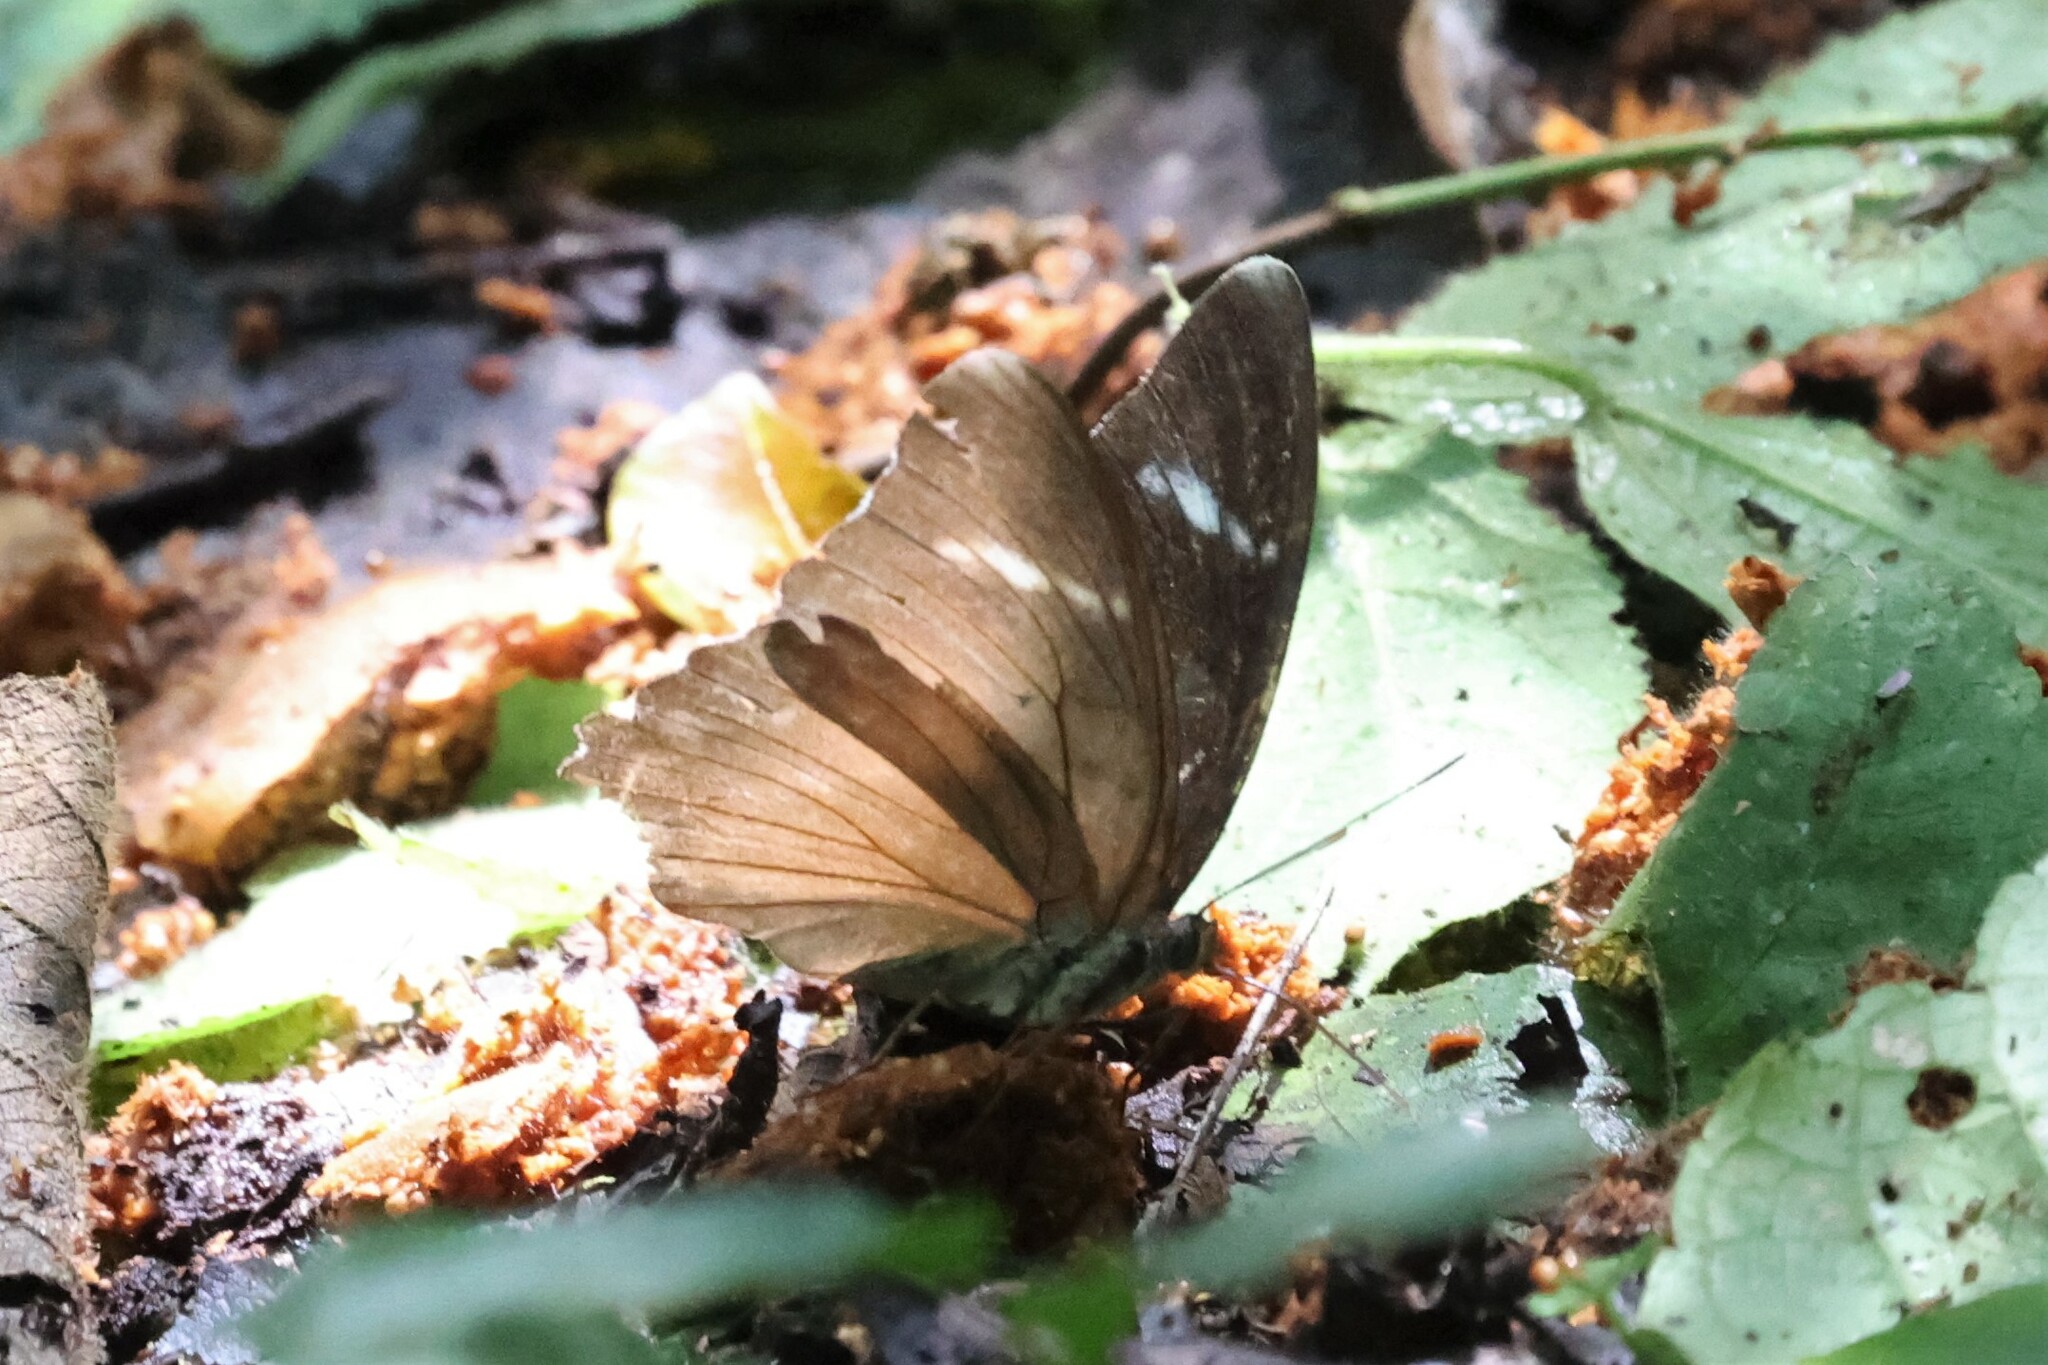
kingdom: Animalia
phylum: Arthropoda
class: Insecta
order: Lepidoptera
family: Nymphalidae
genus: Euphaedra
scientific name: Euphaedra rex
